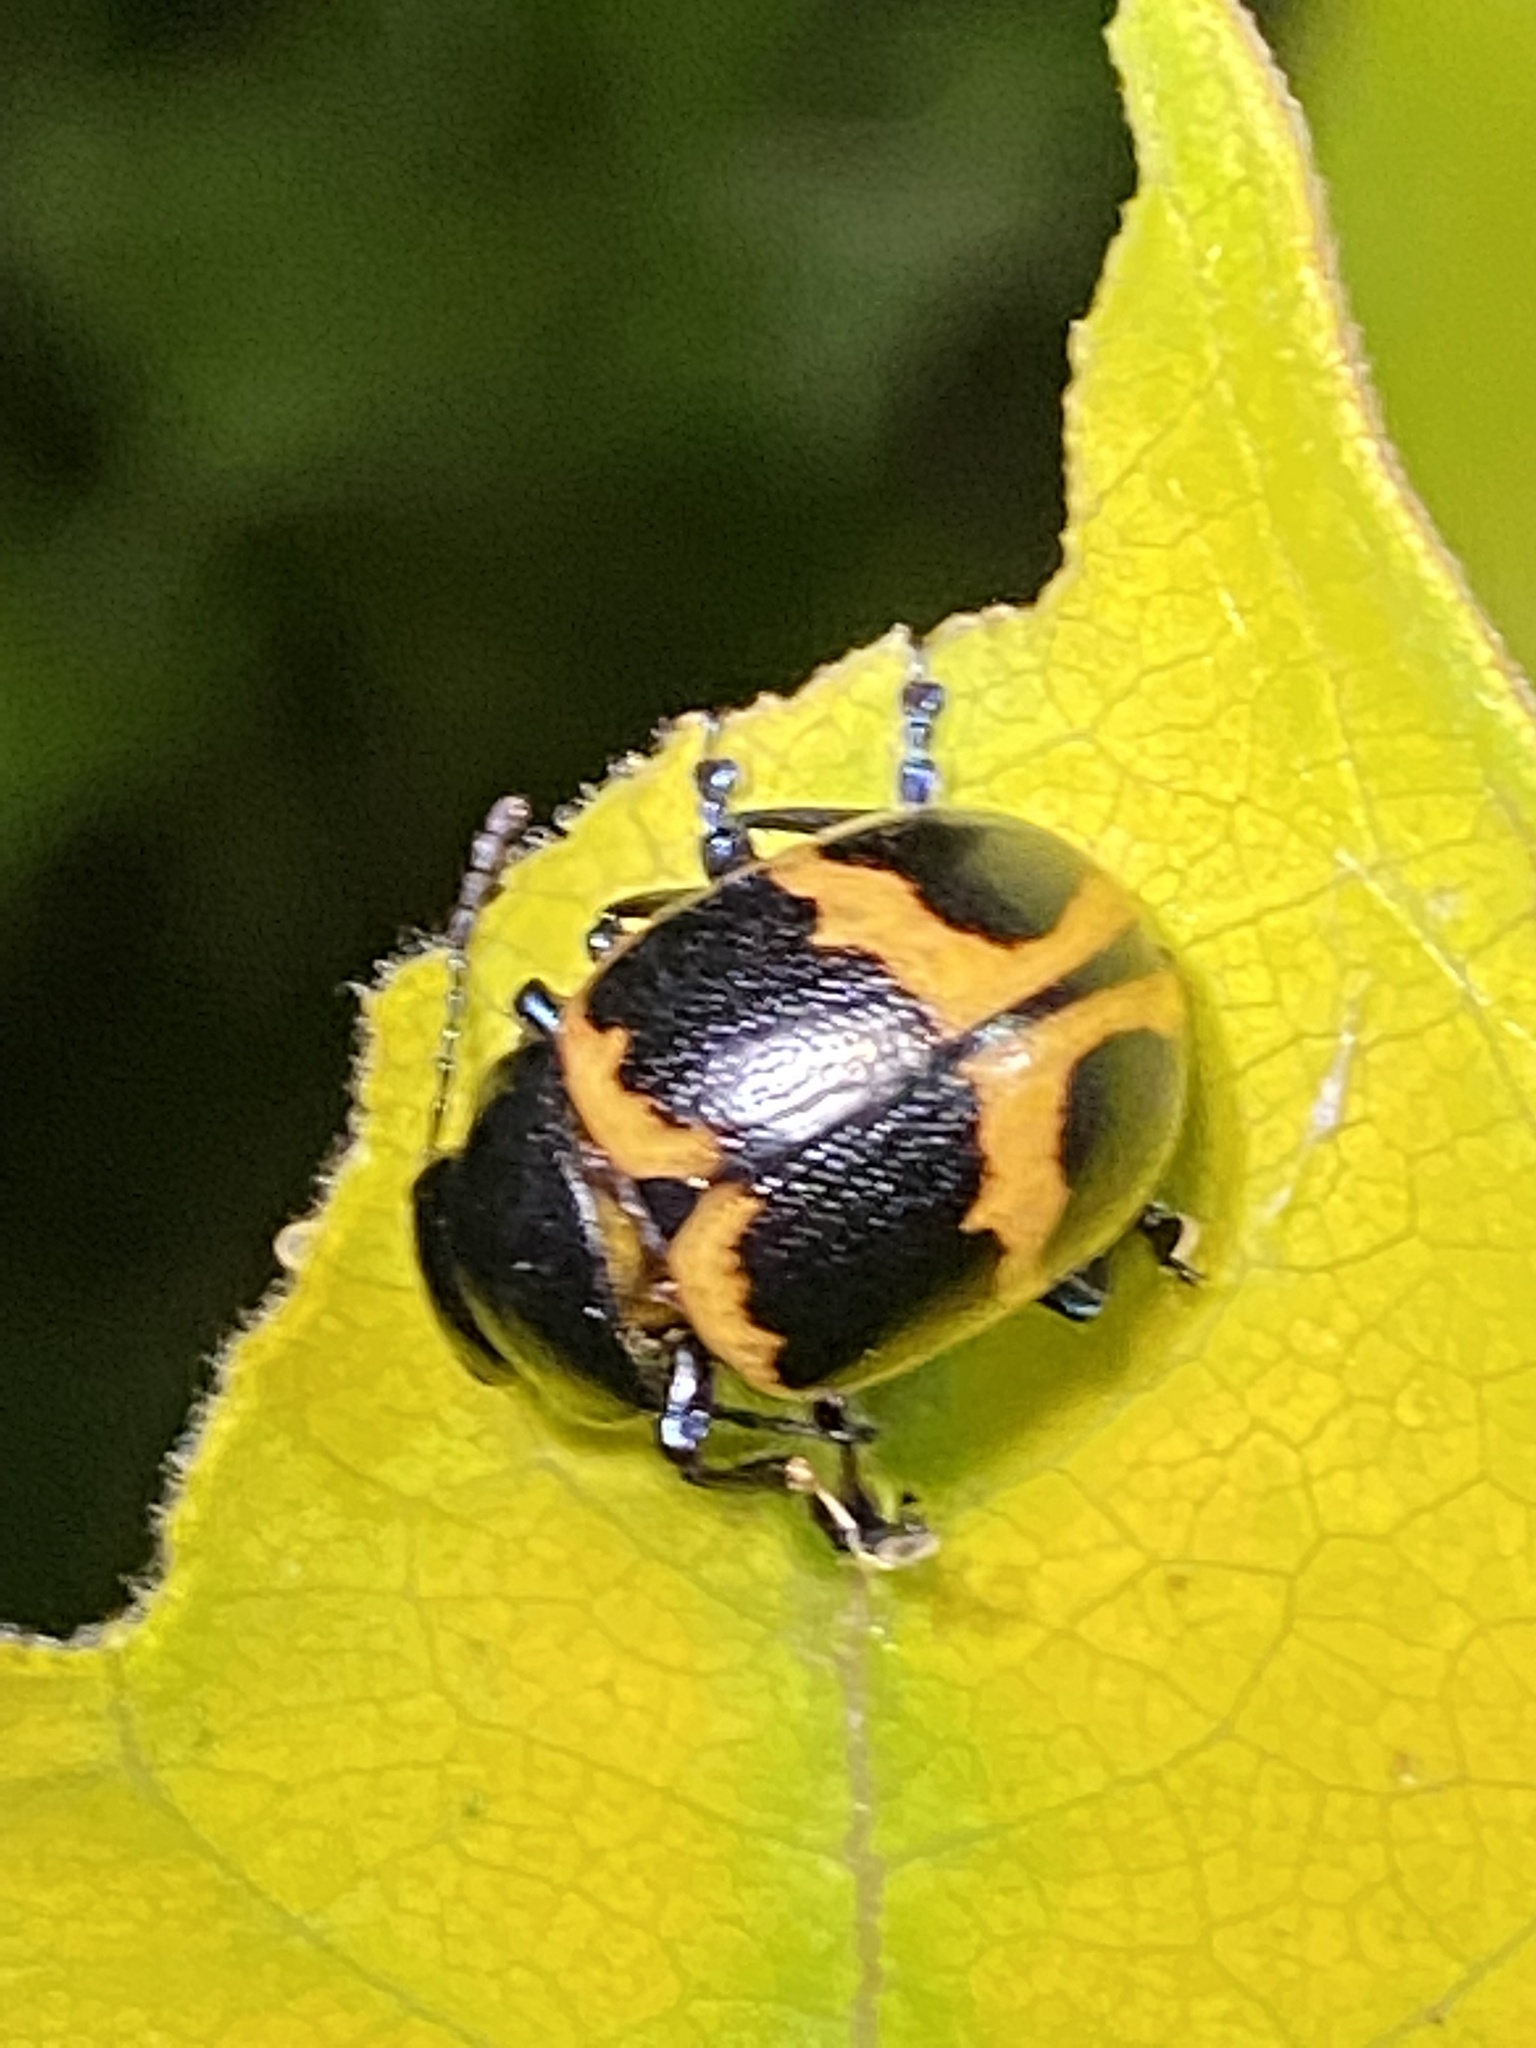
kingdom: Animalia
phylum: Arthropoda
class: Insecta
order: Coleoptera
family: Chrysomelidae
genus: Labidomera
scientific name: Labidomera clivicollis
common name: Swamp milkweed leaf beetle
